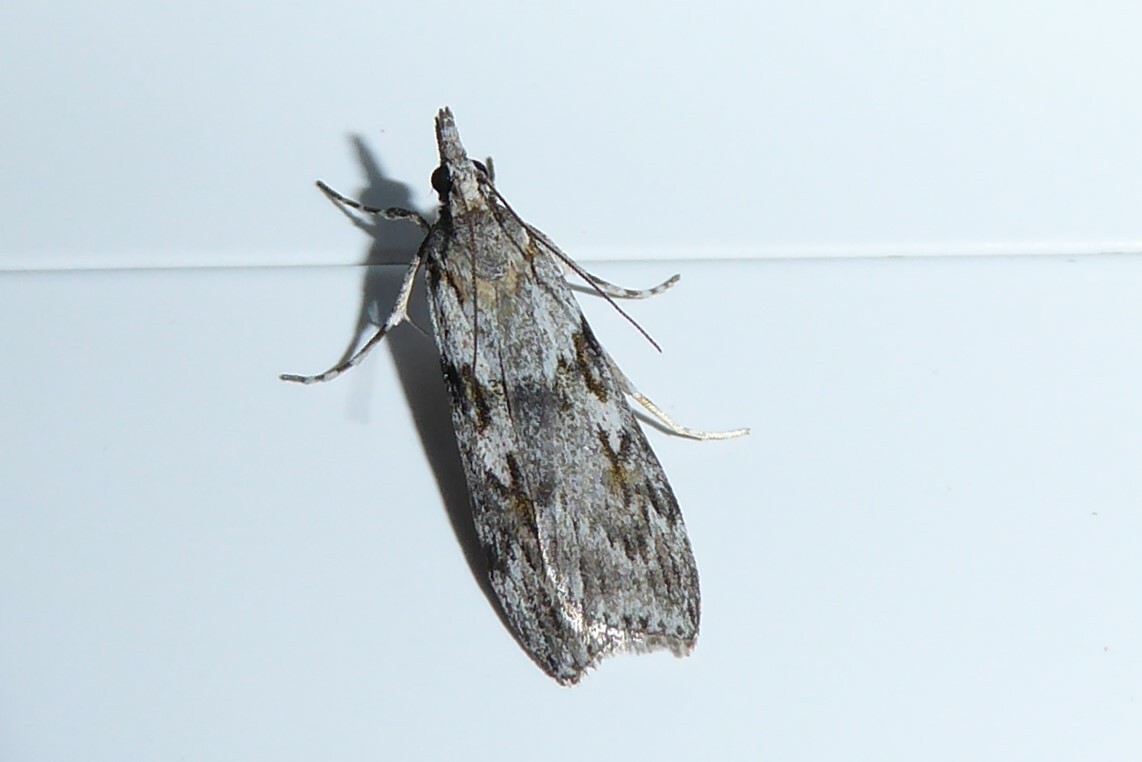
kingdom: Animalia
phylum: Arthropoda
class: Insecta
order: Lepidoptera
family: Crambidae
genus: Scoparia
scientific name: Scoparia halopis
